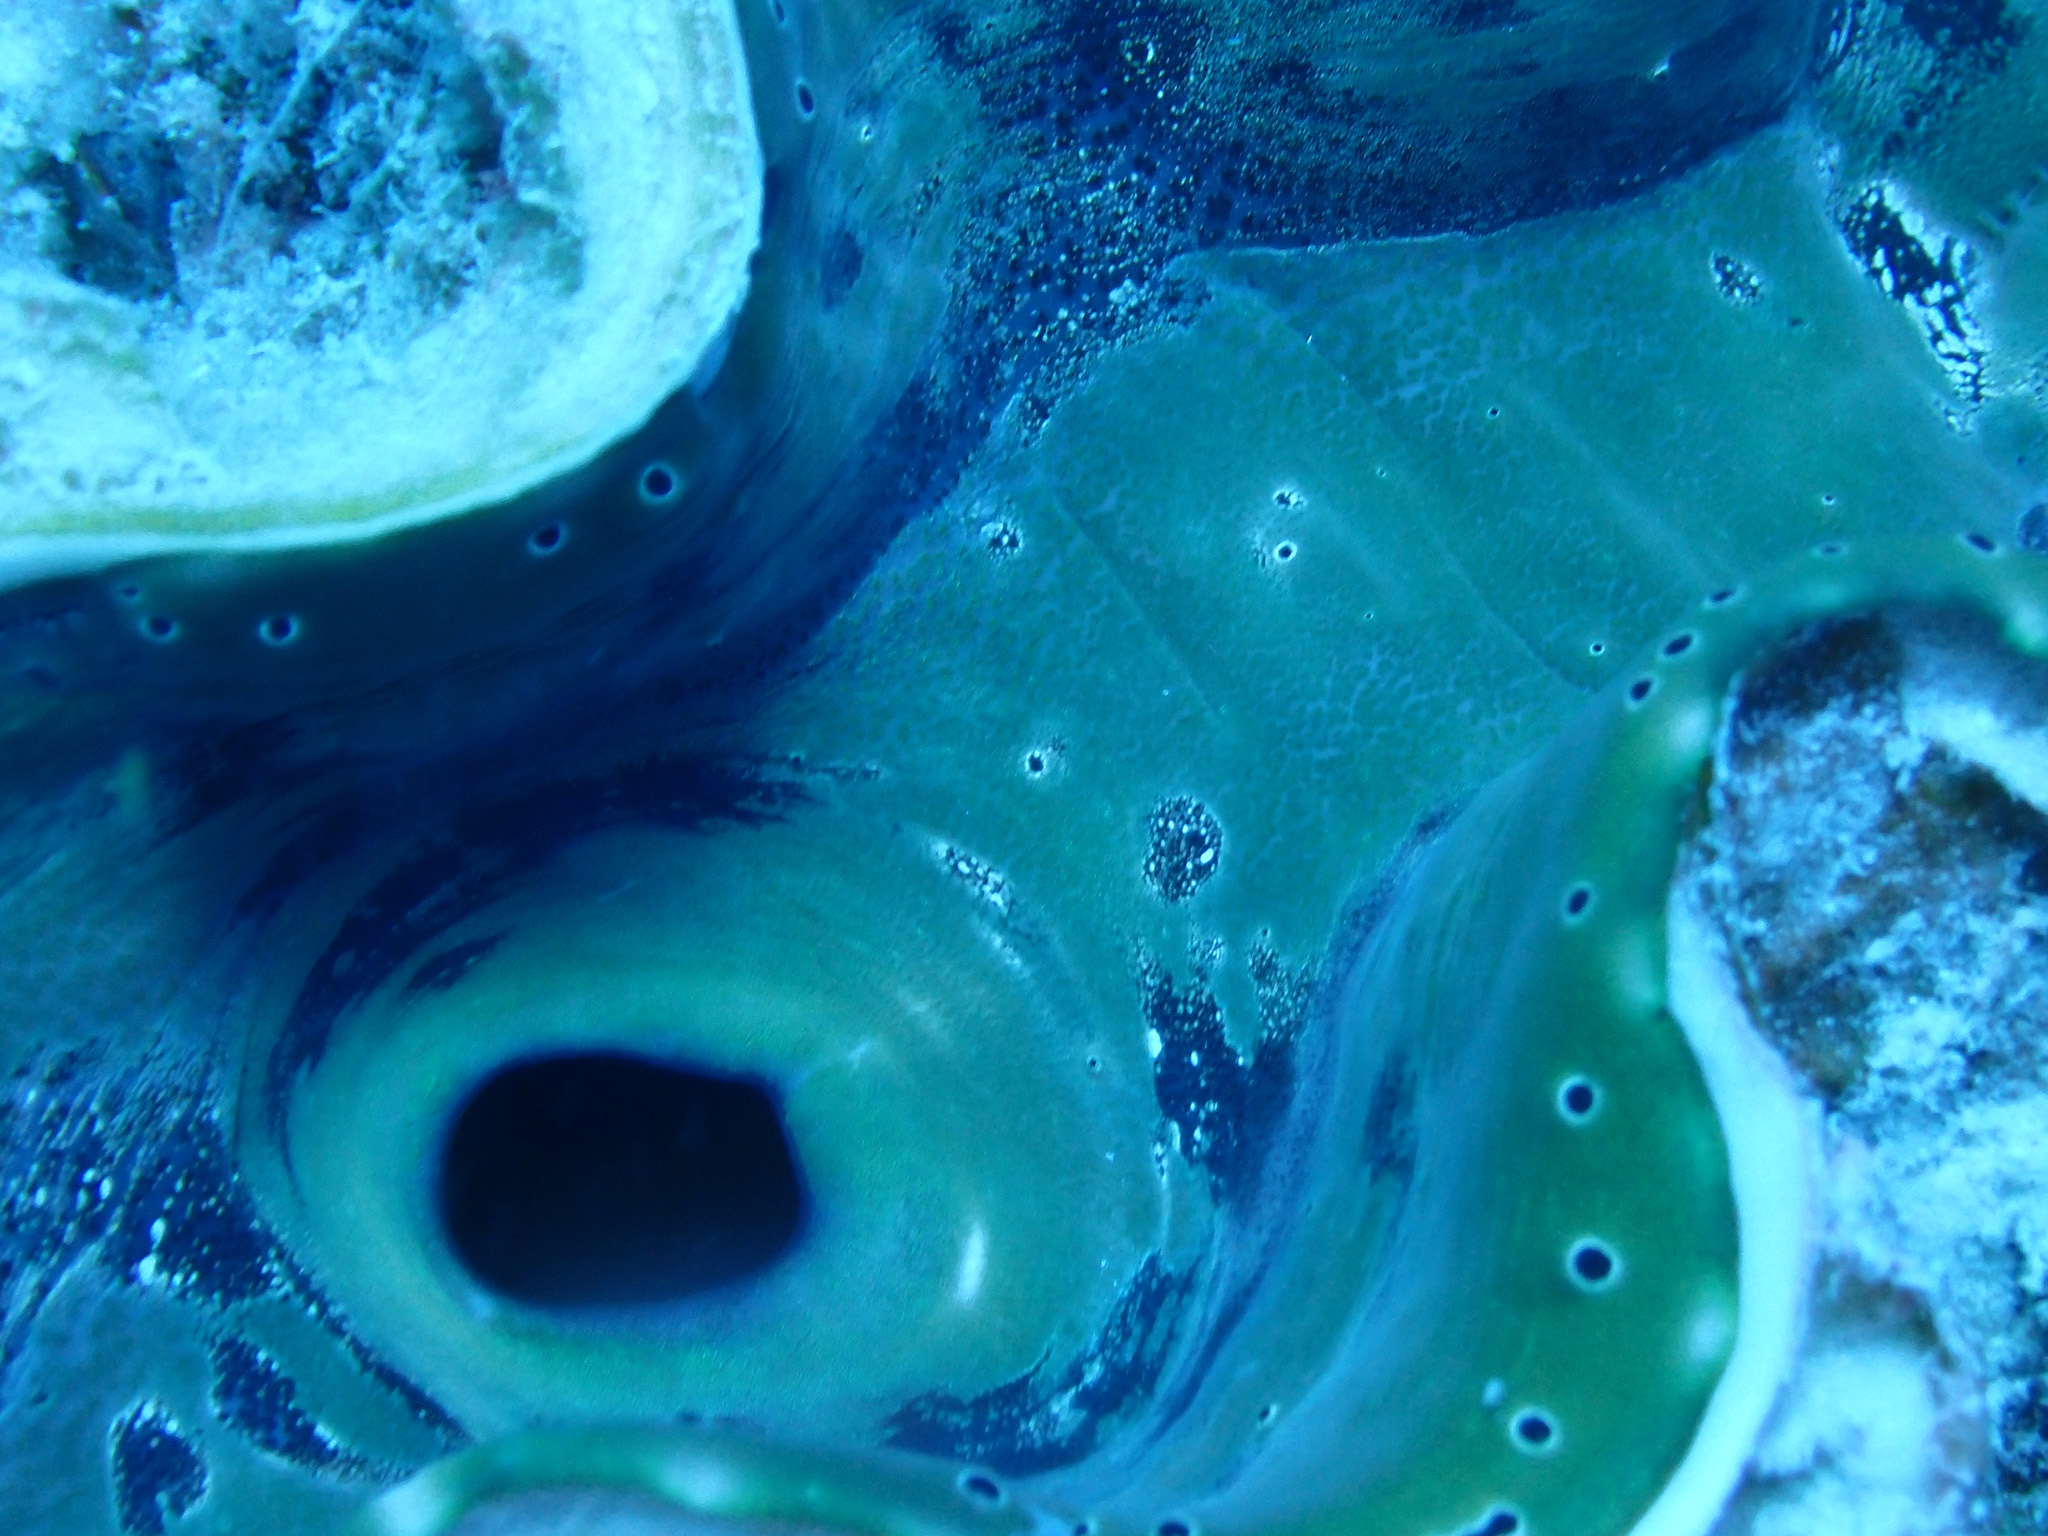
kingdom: Animalia
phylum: Mollusca
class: Bivalvia
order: Cardiida
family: Cardiidae
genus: Tridacna
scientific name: Tridacna squamosa
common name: Fluted clam
